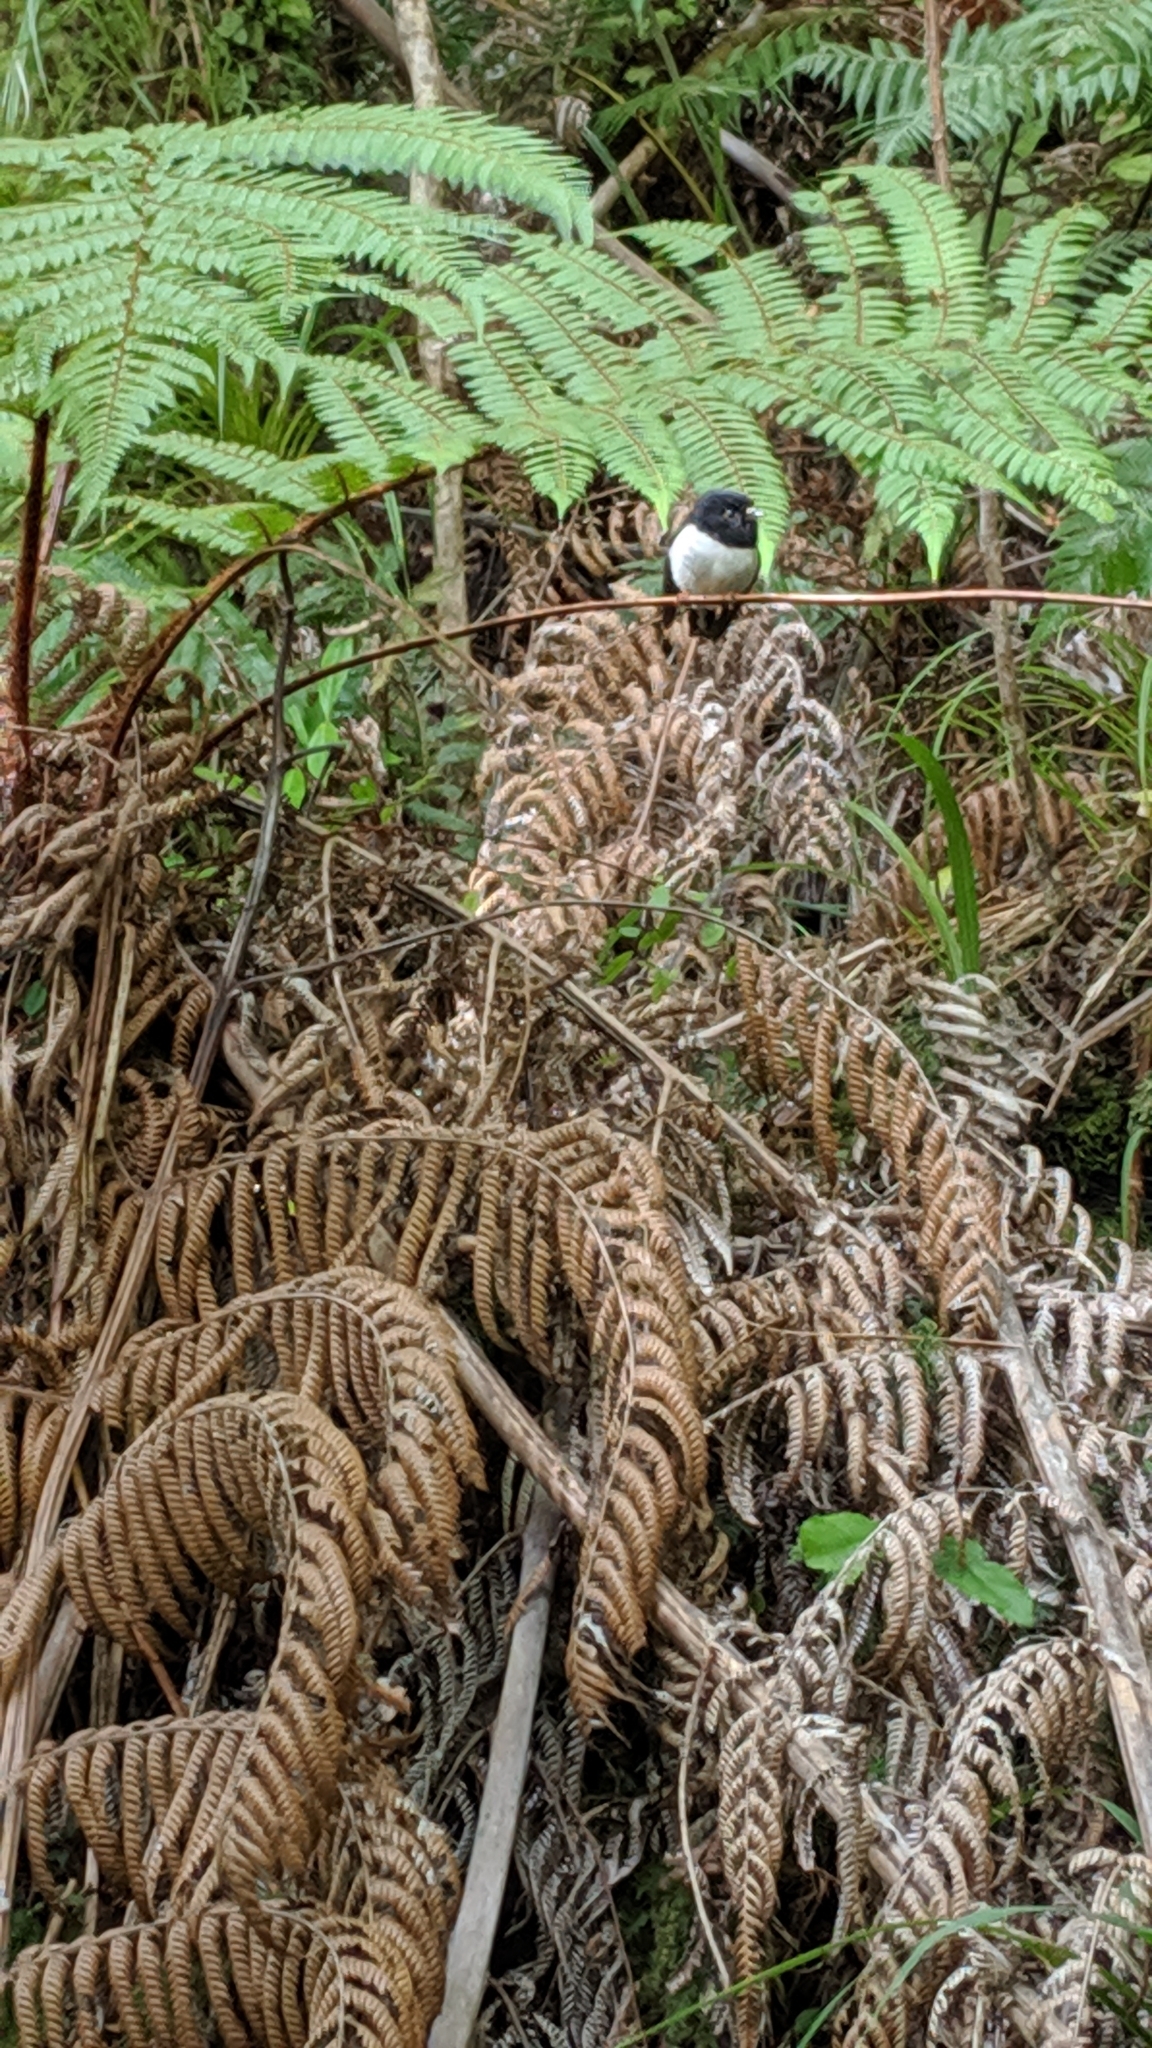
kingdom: Animalia
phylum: Chordata
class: Aves
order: Passeriformes
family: Petroicidae
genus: Petroica
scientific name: Petroica macrocephala
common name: Tomtit
